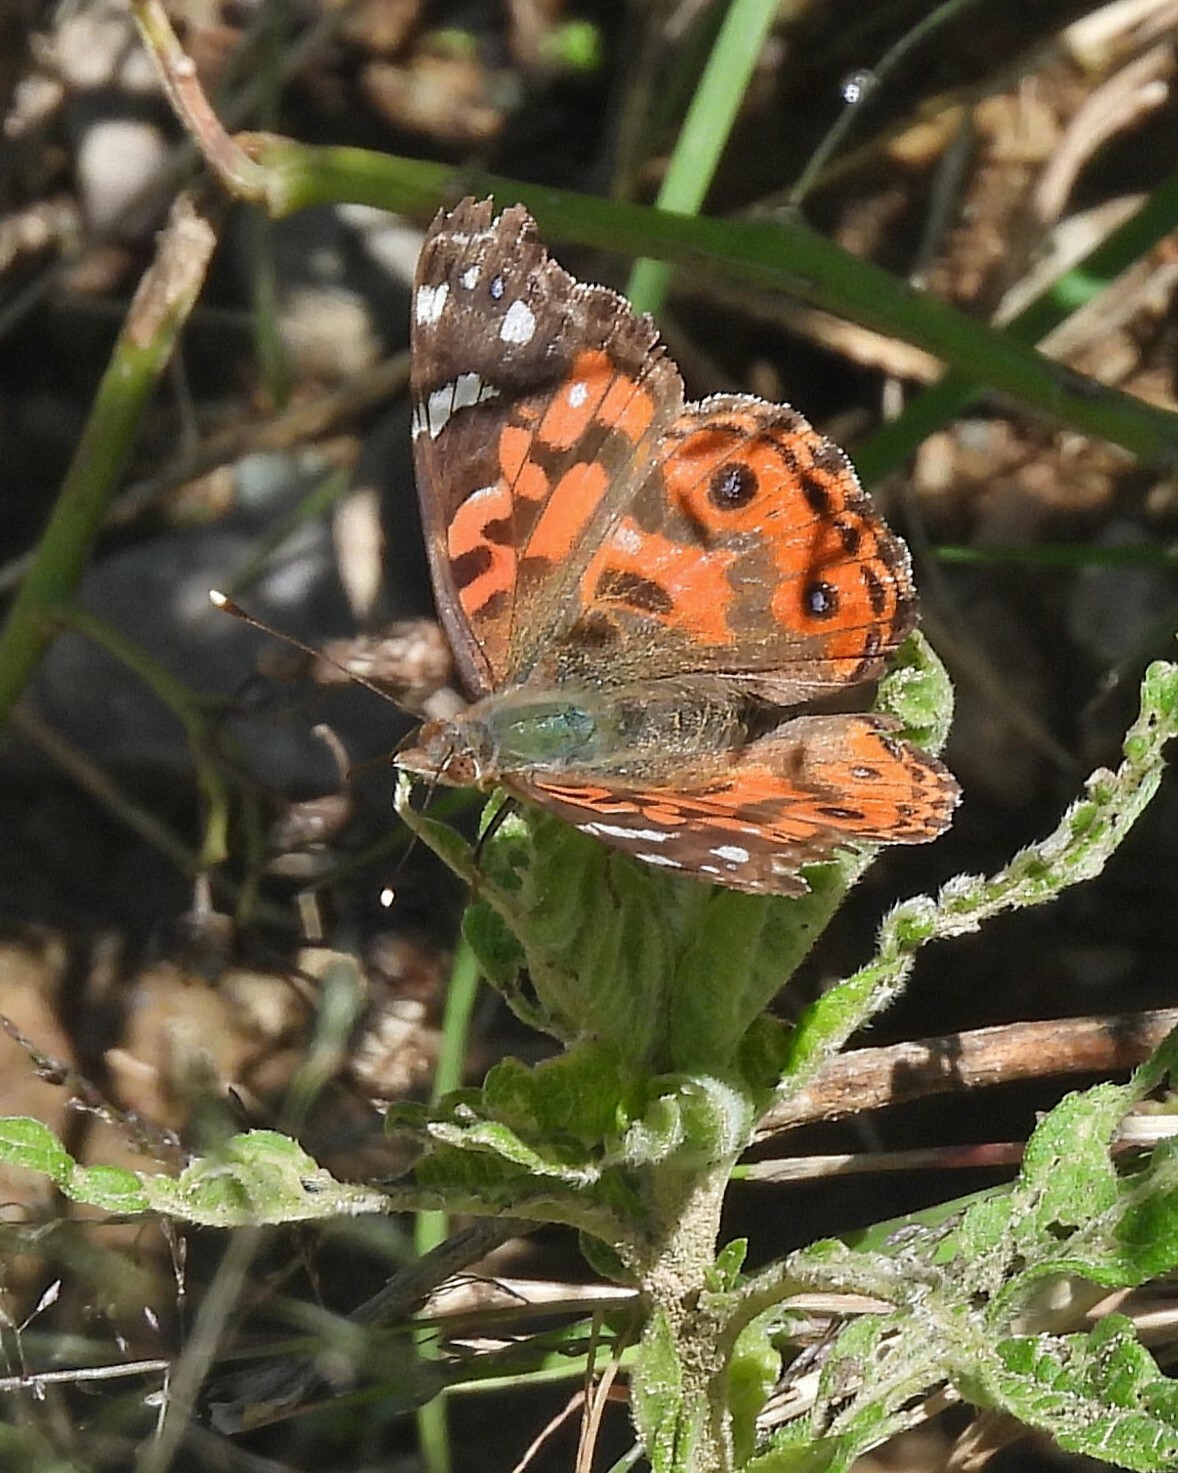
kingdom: Animalia
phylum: Arthropoda
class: Insecta
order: Lepidoptera
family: Nymphalidae
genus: Vanessa
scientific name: Vanessa braziliensis
